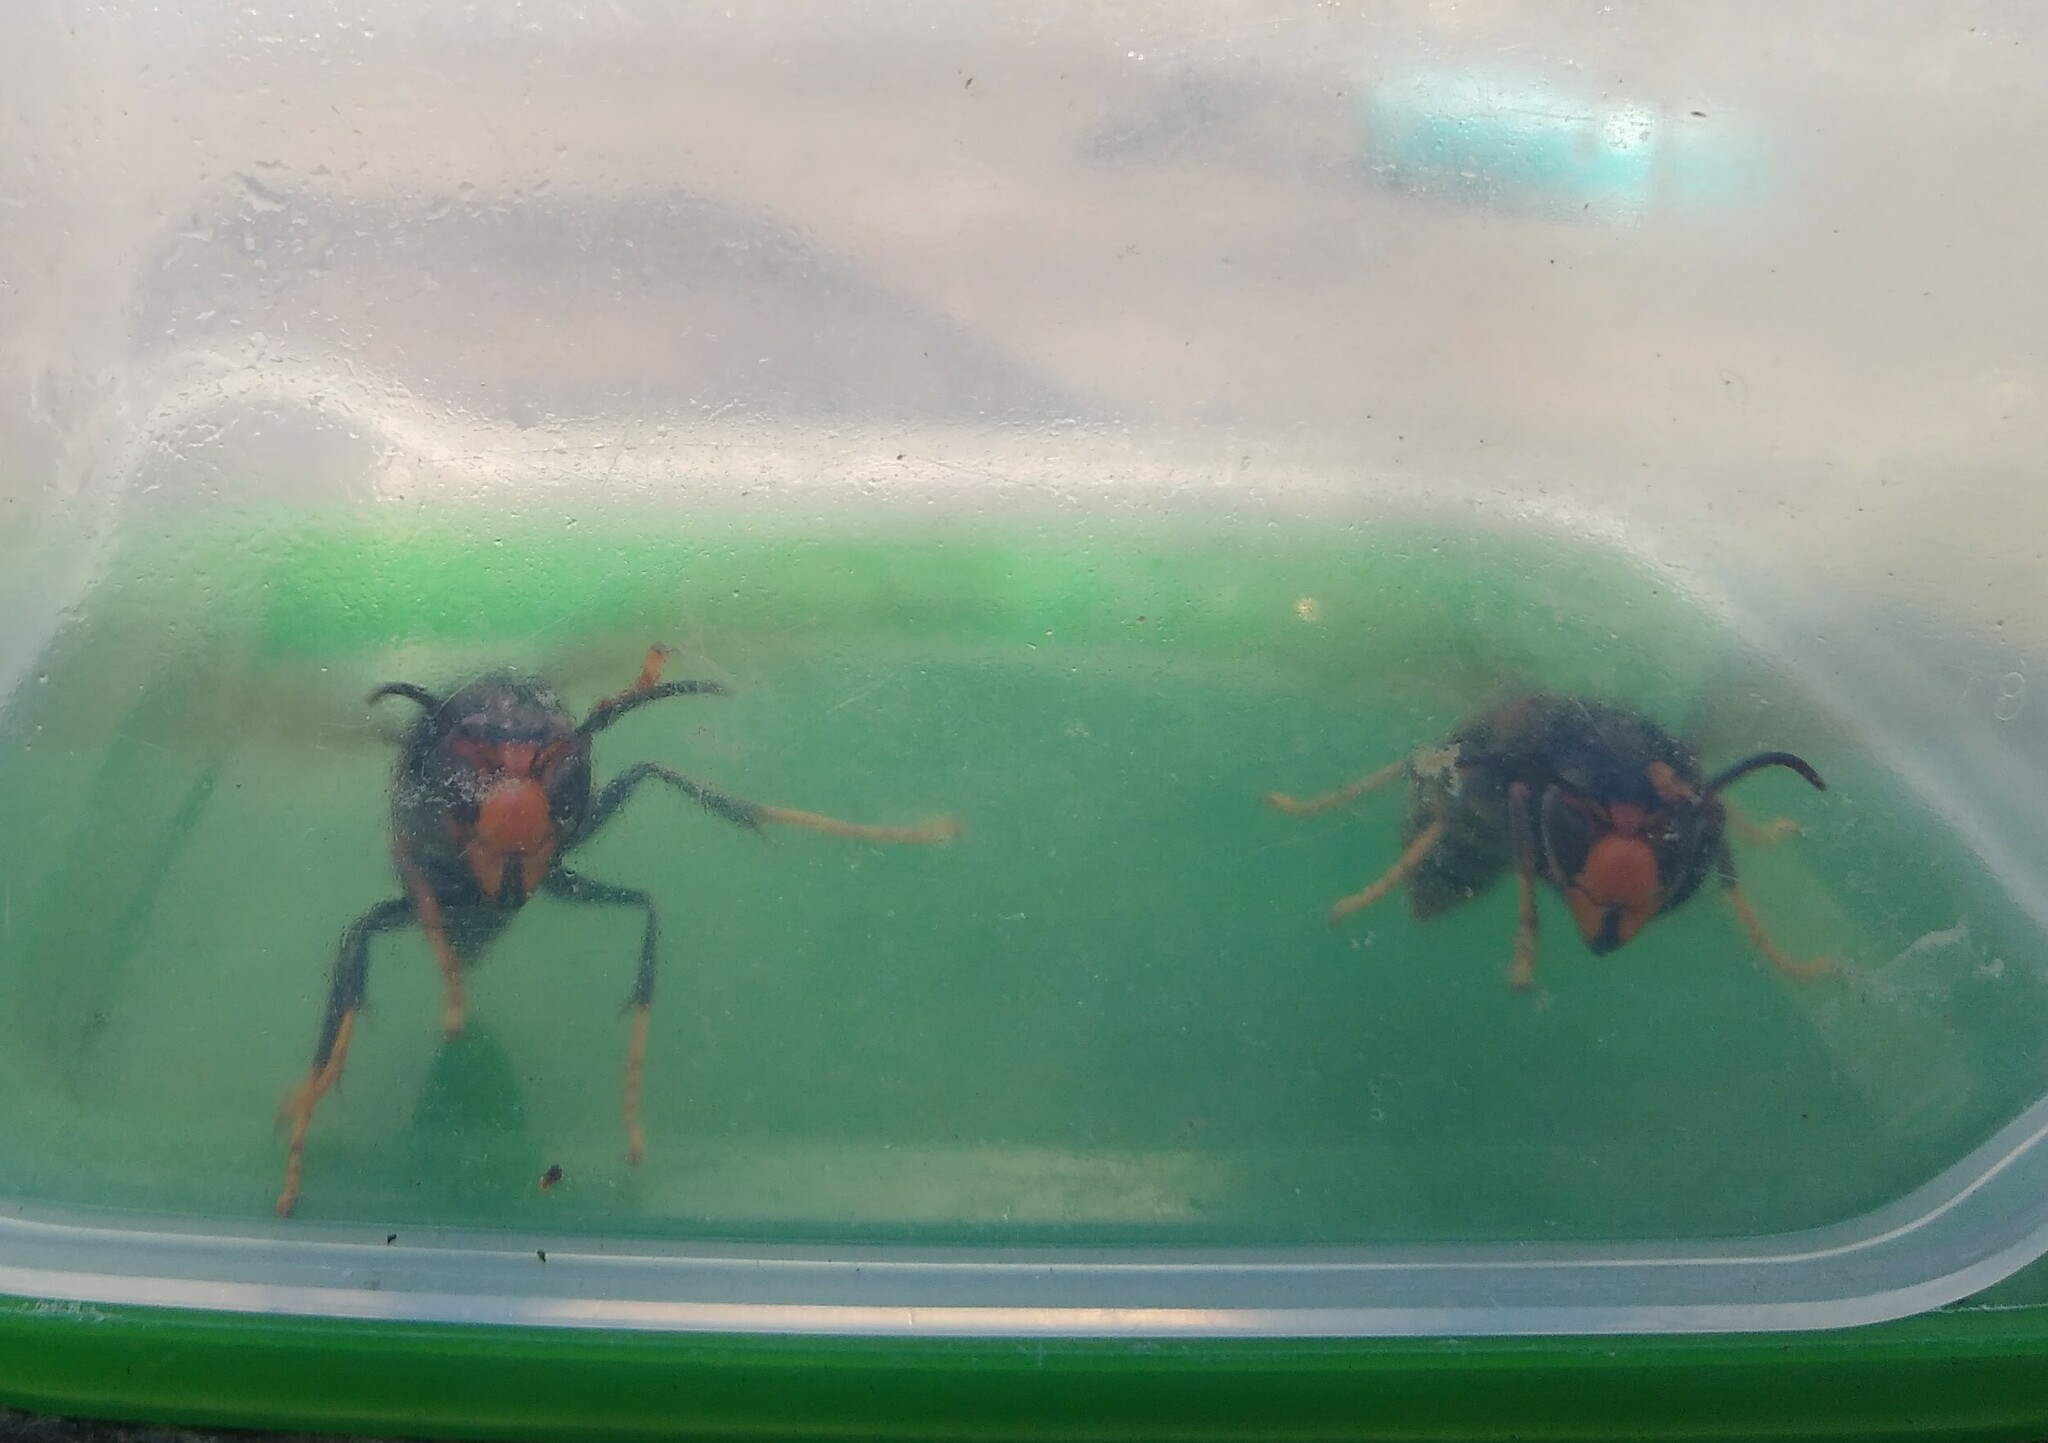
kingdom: Animalia
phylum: Arthropoda
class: Insecta
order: Hymenoptera
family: Vespidae
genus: Vespa
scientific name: Vespa velutina
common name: Asian hornet
